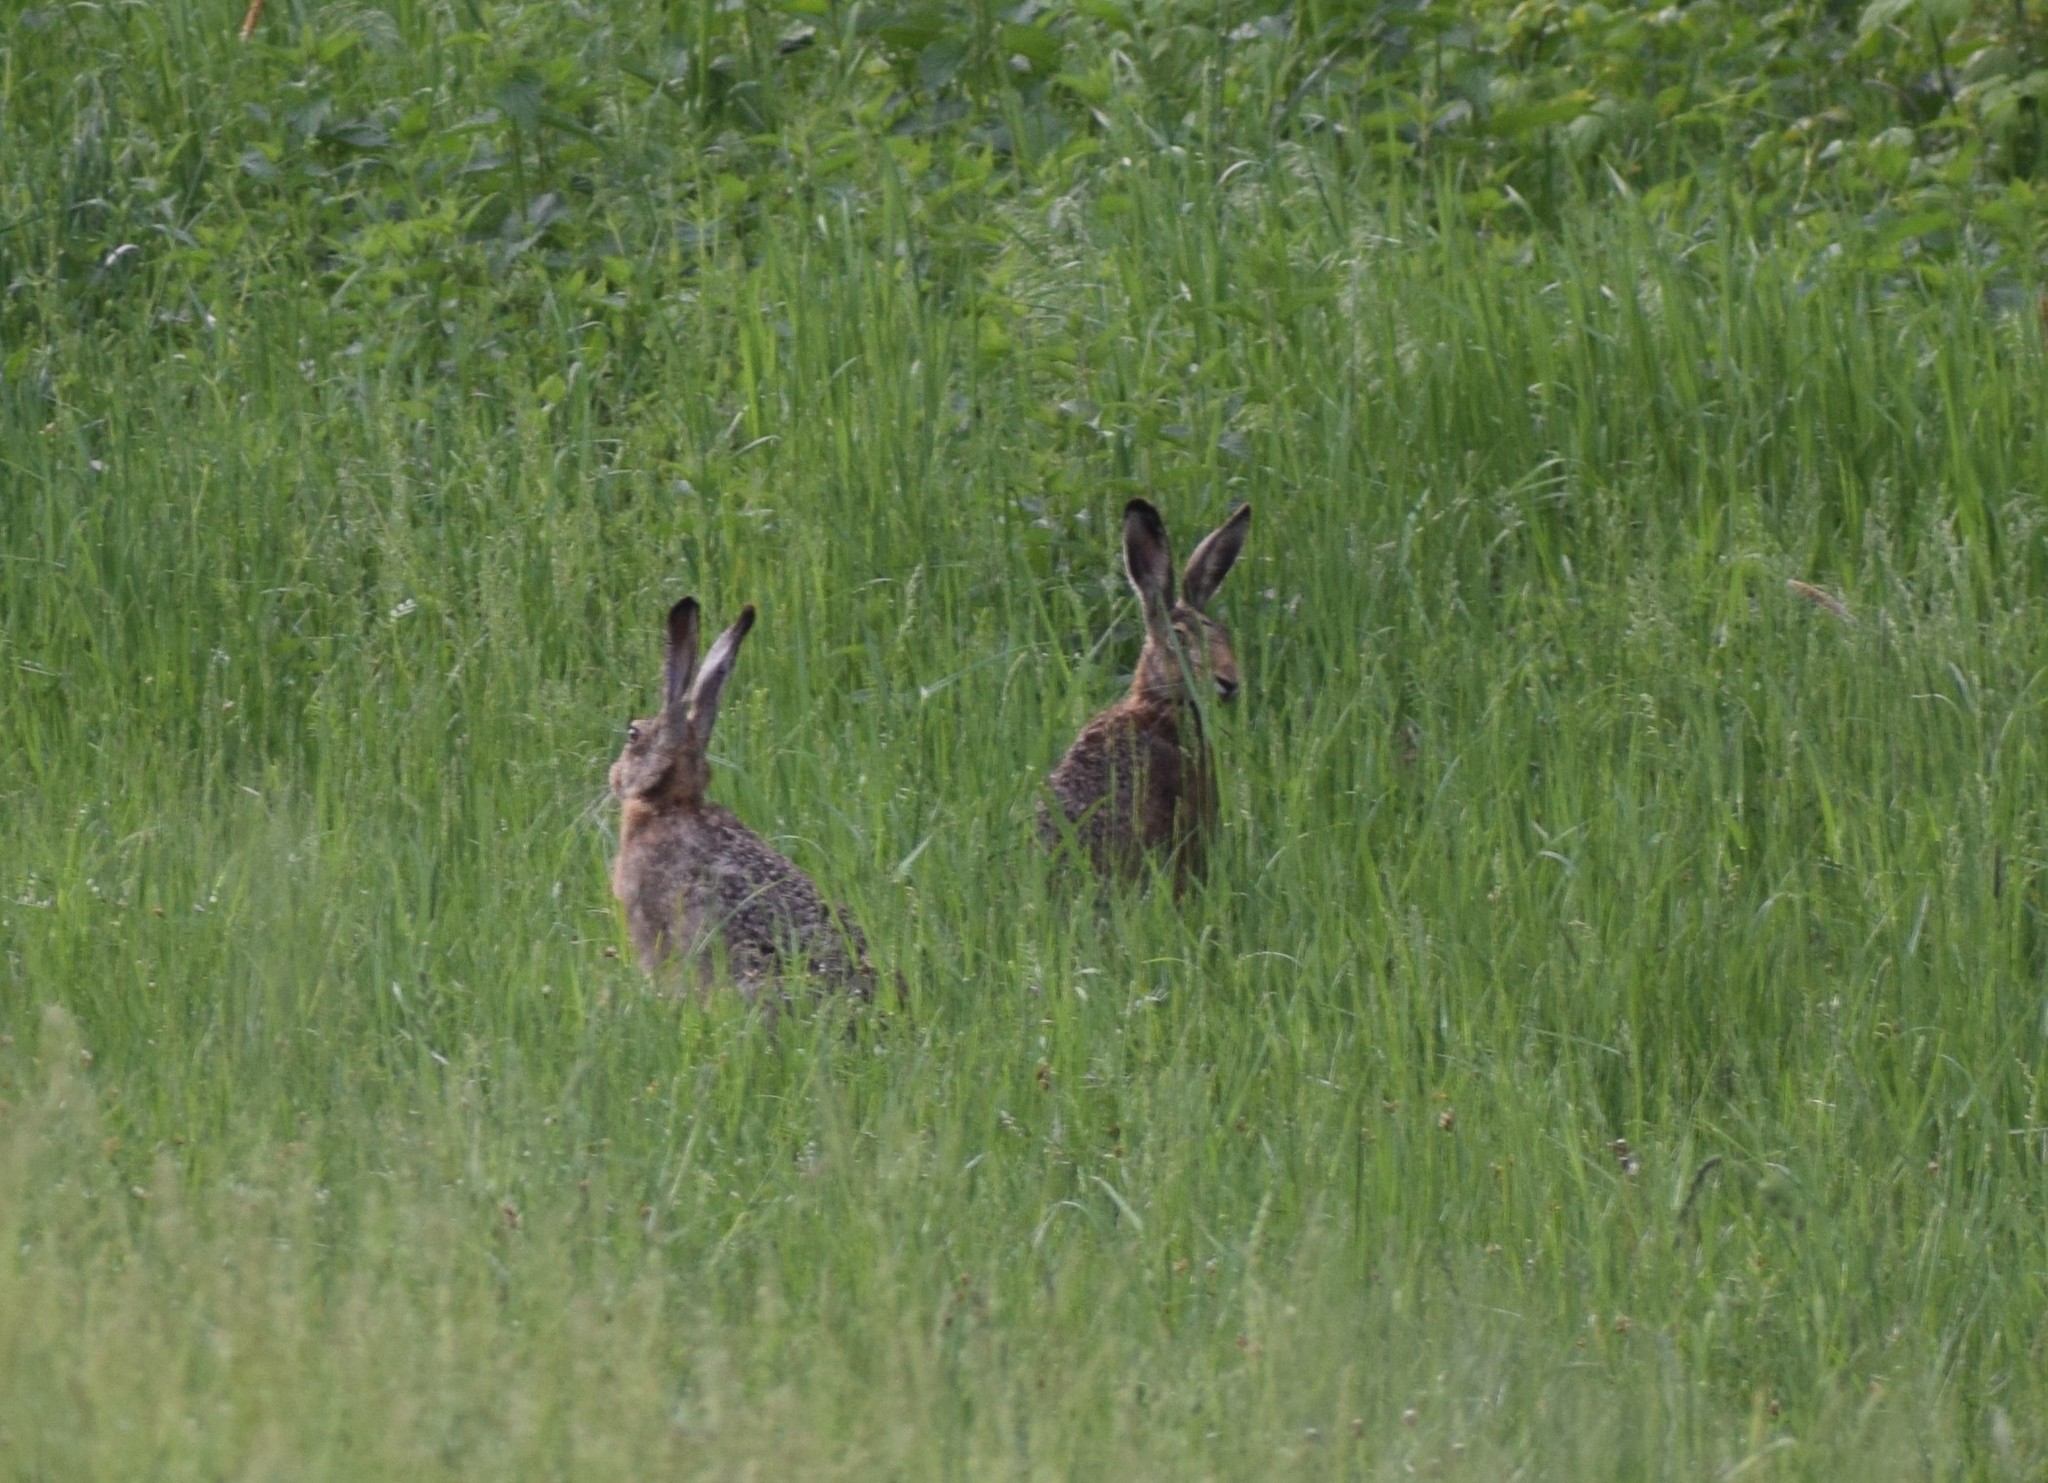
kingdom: Animalia
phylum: Chordata
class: Mammalia
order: Lagomorpha
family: Leporidae
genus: Lepus
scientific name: Lepus europaeus
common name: European hare
